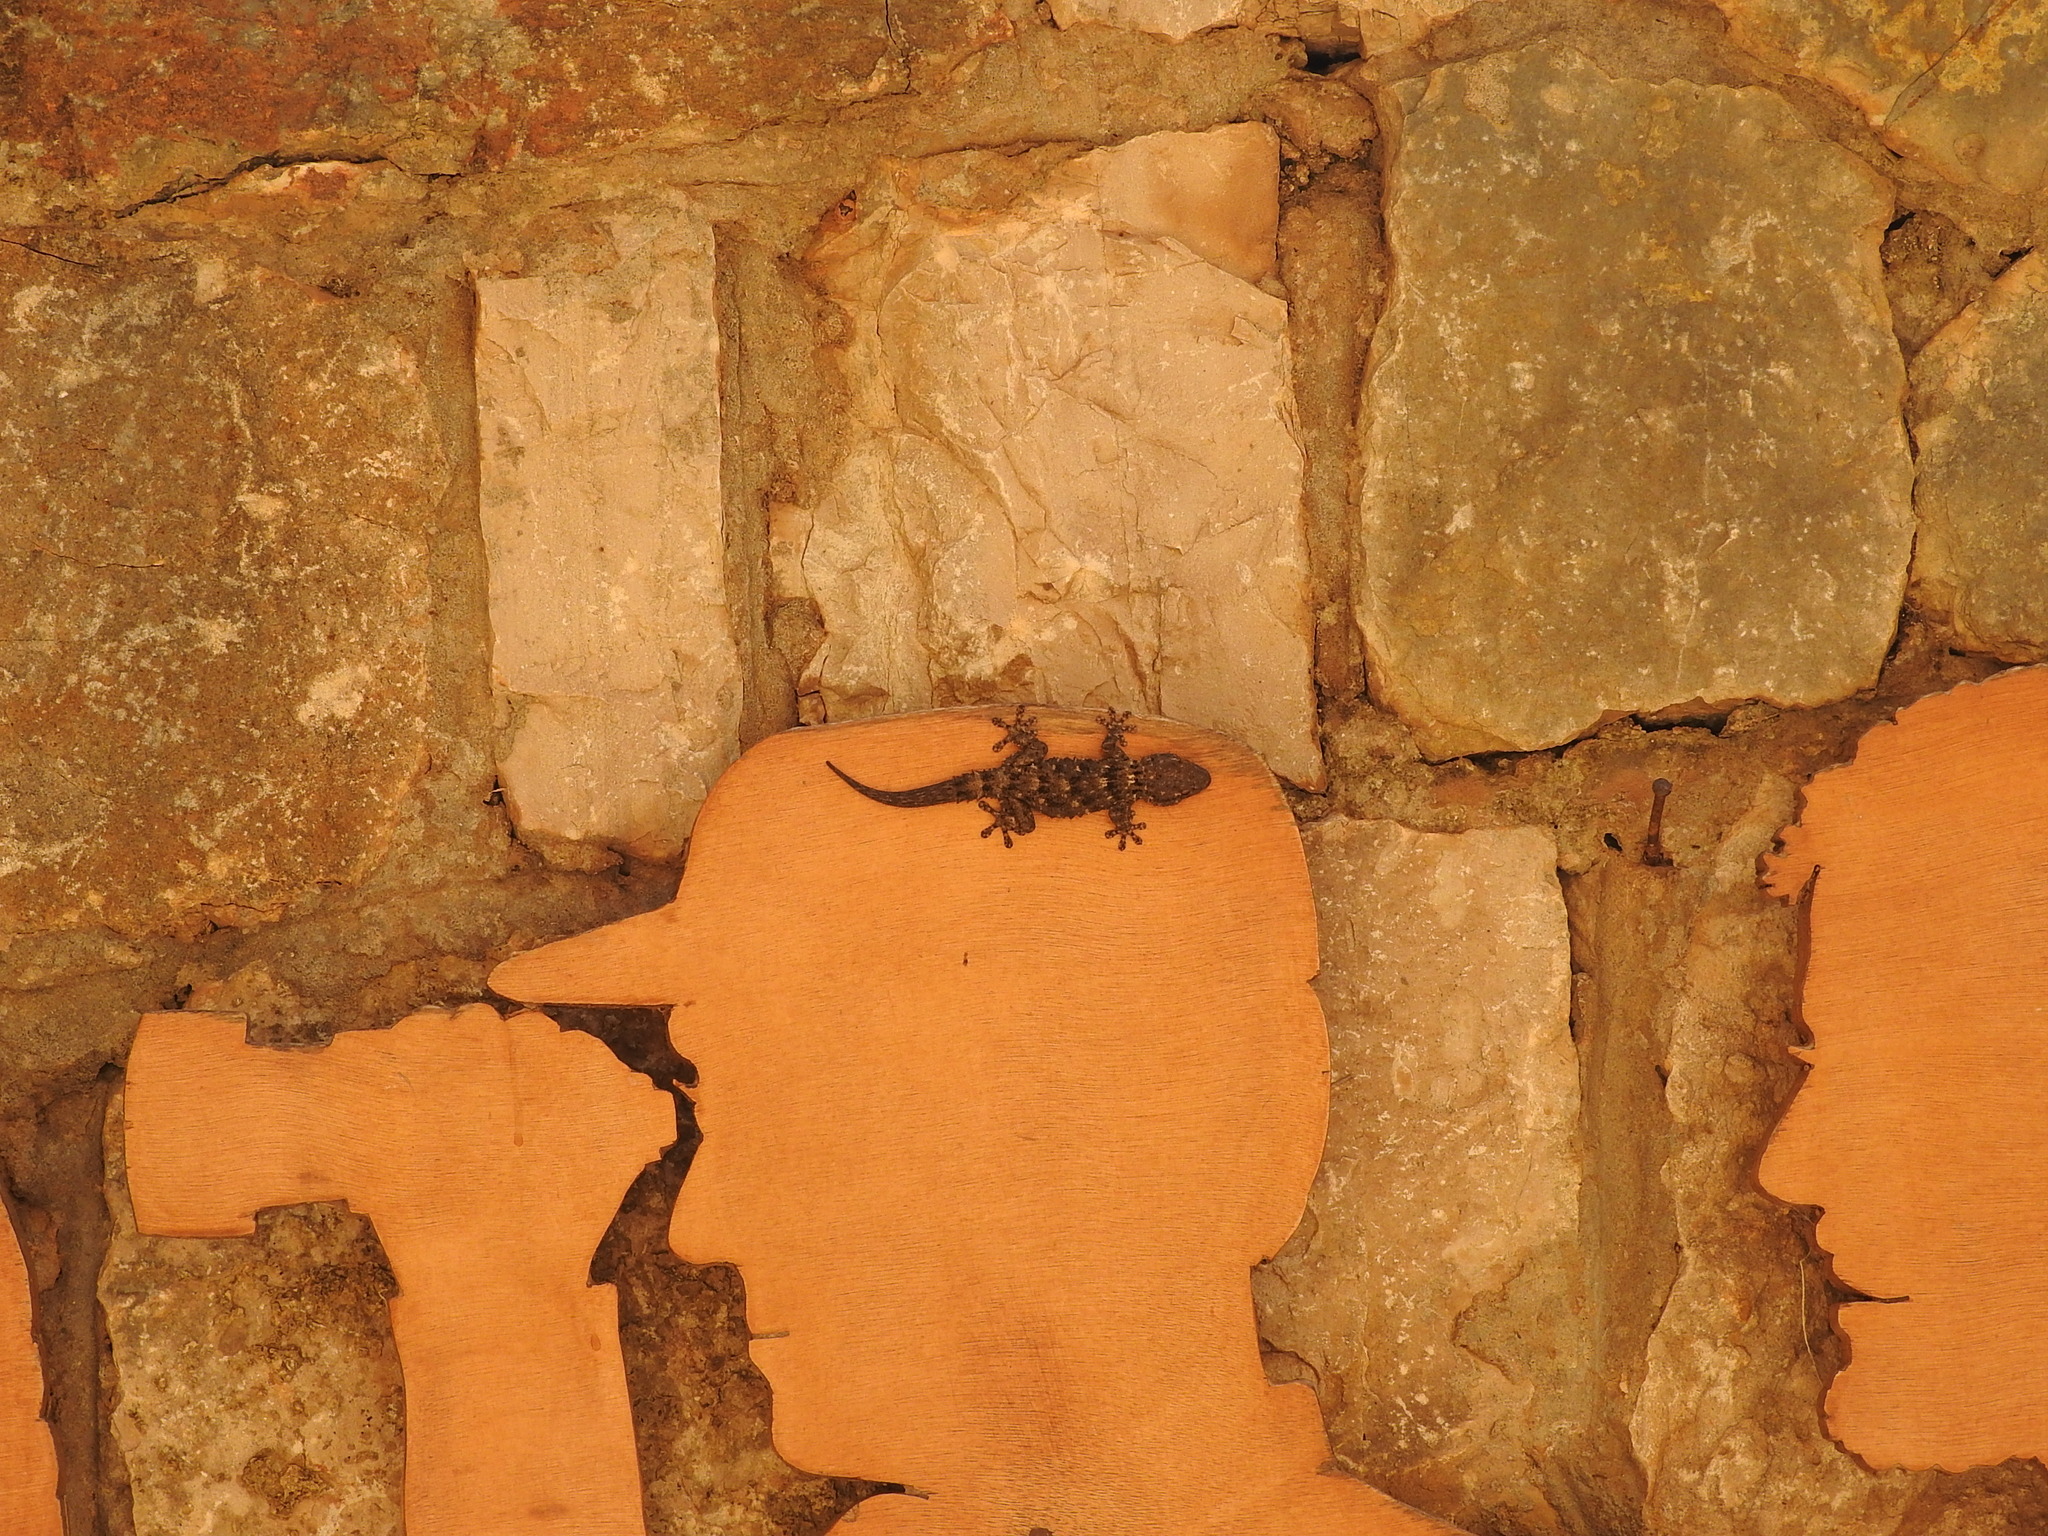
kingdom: Animalia
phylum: Chordata
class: Squamata
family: Phyllodactylidae
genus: Tarentola
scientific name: Tarentola mauritanica
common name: Moorish gecko
